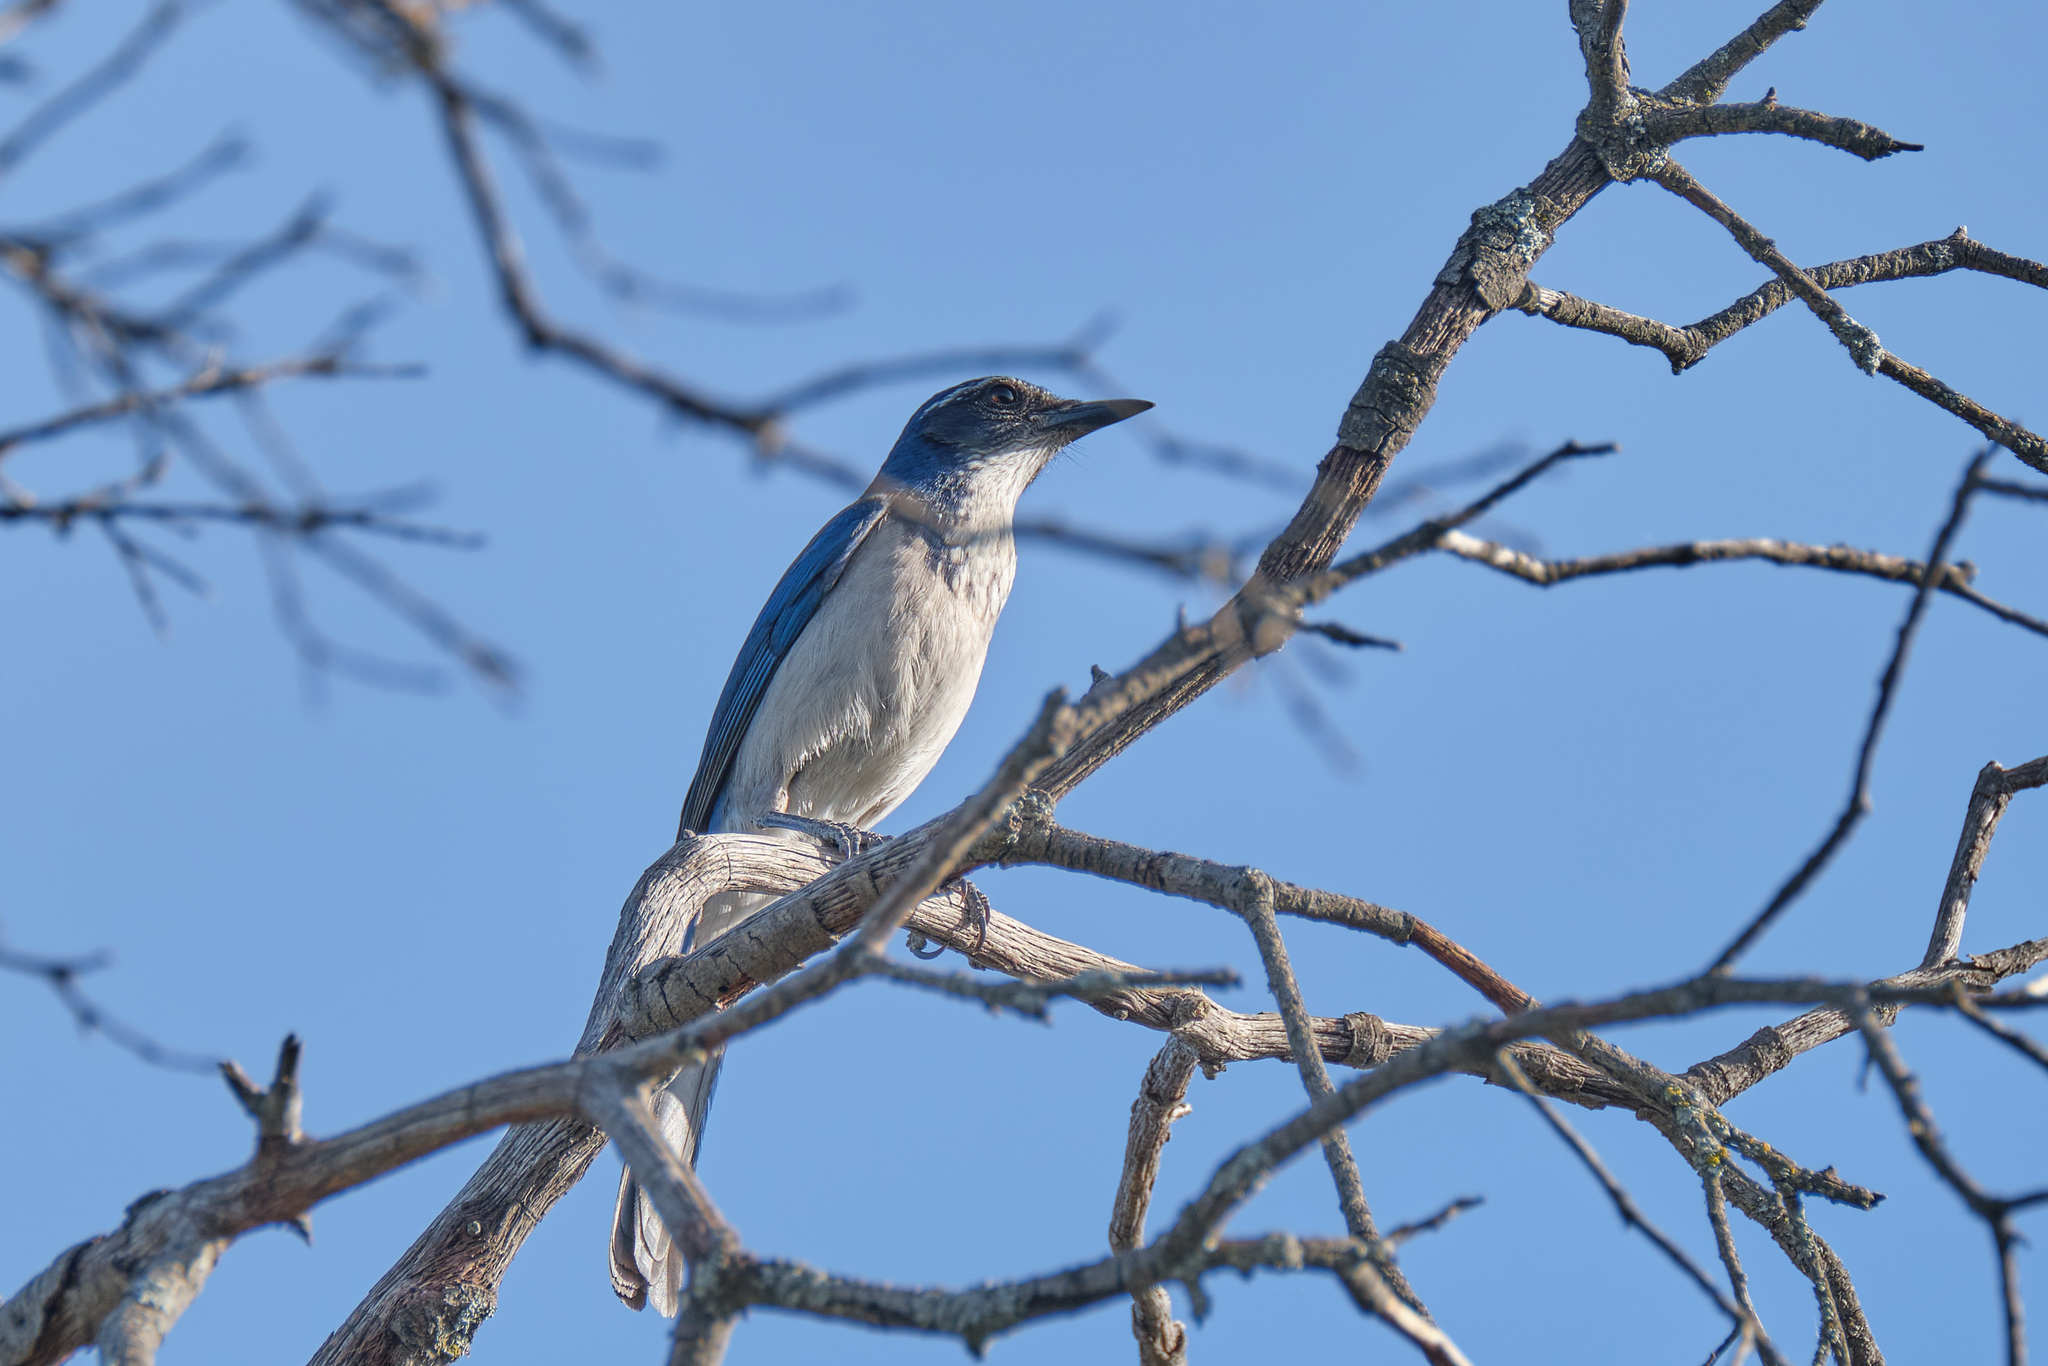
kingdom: Animalia
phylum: Chordata
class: Aves
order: Passeriformes
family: Corvidae
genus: Aphelocoma
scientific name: Aphelocoma californica
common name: California scrub-jay
